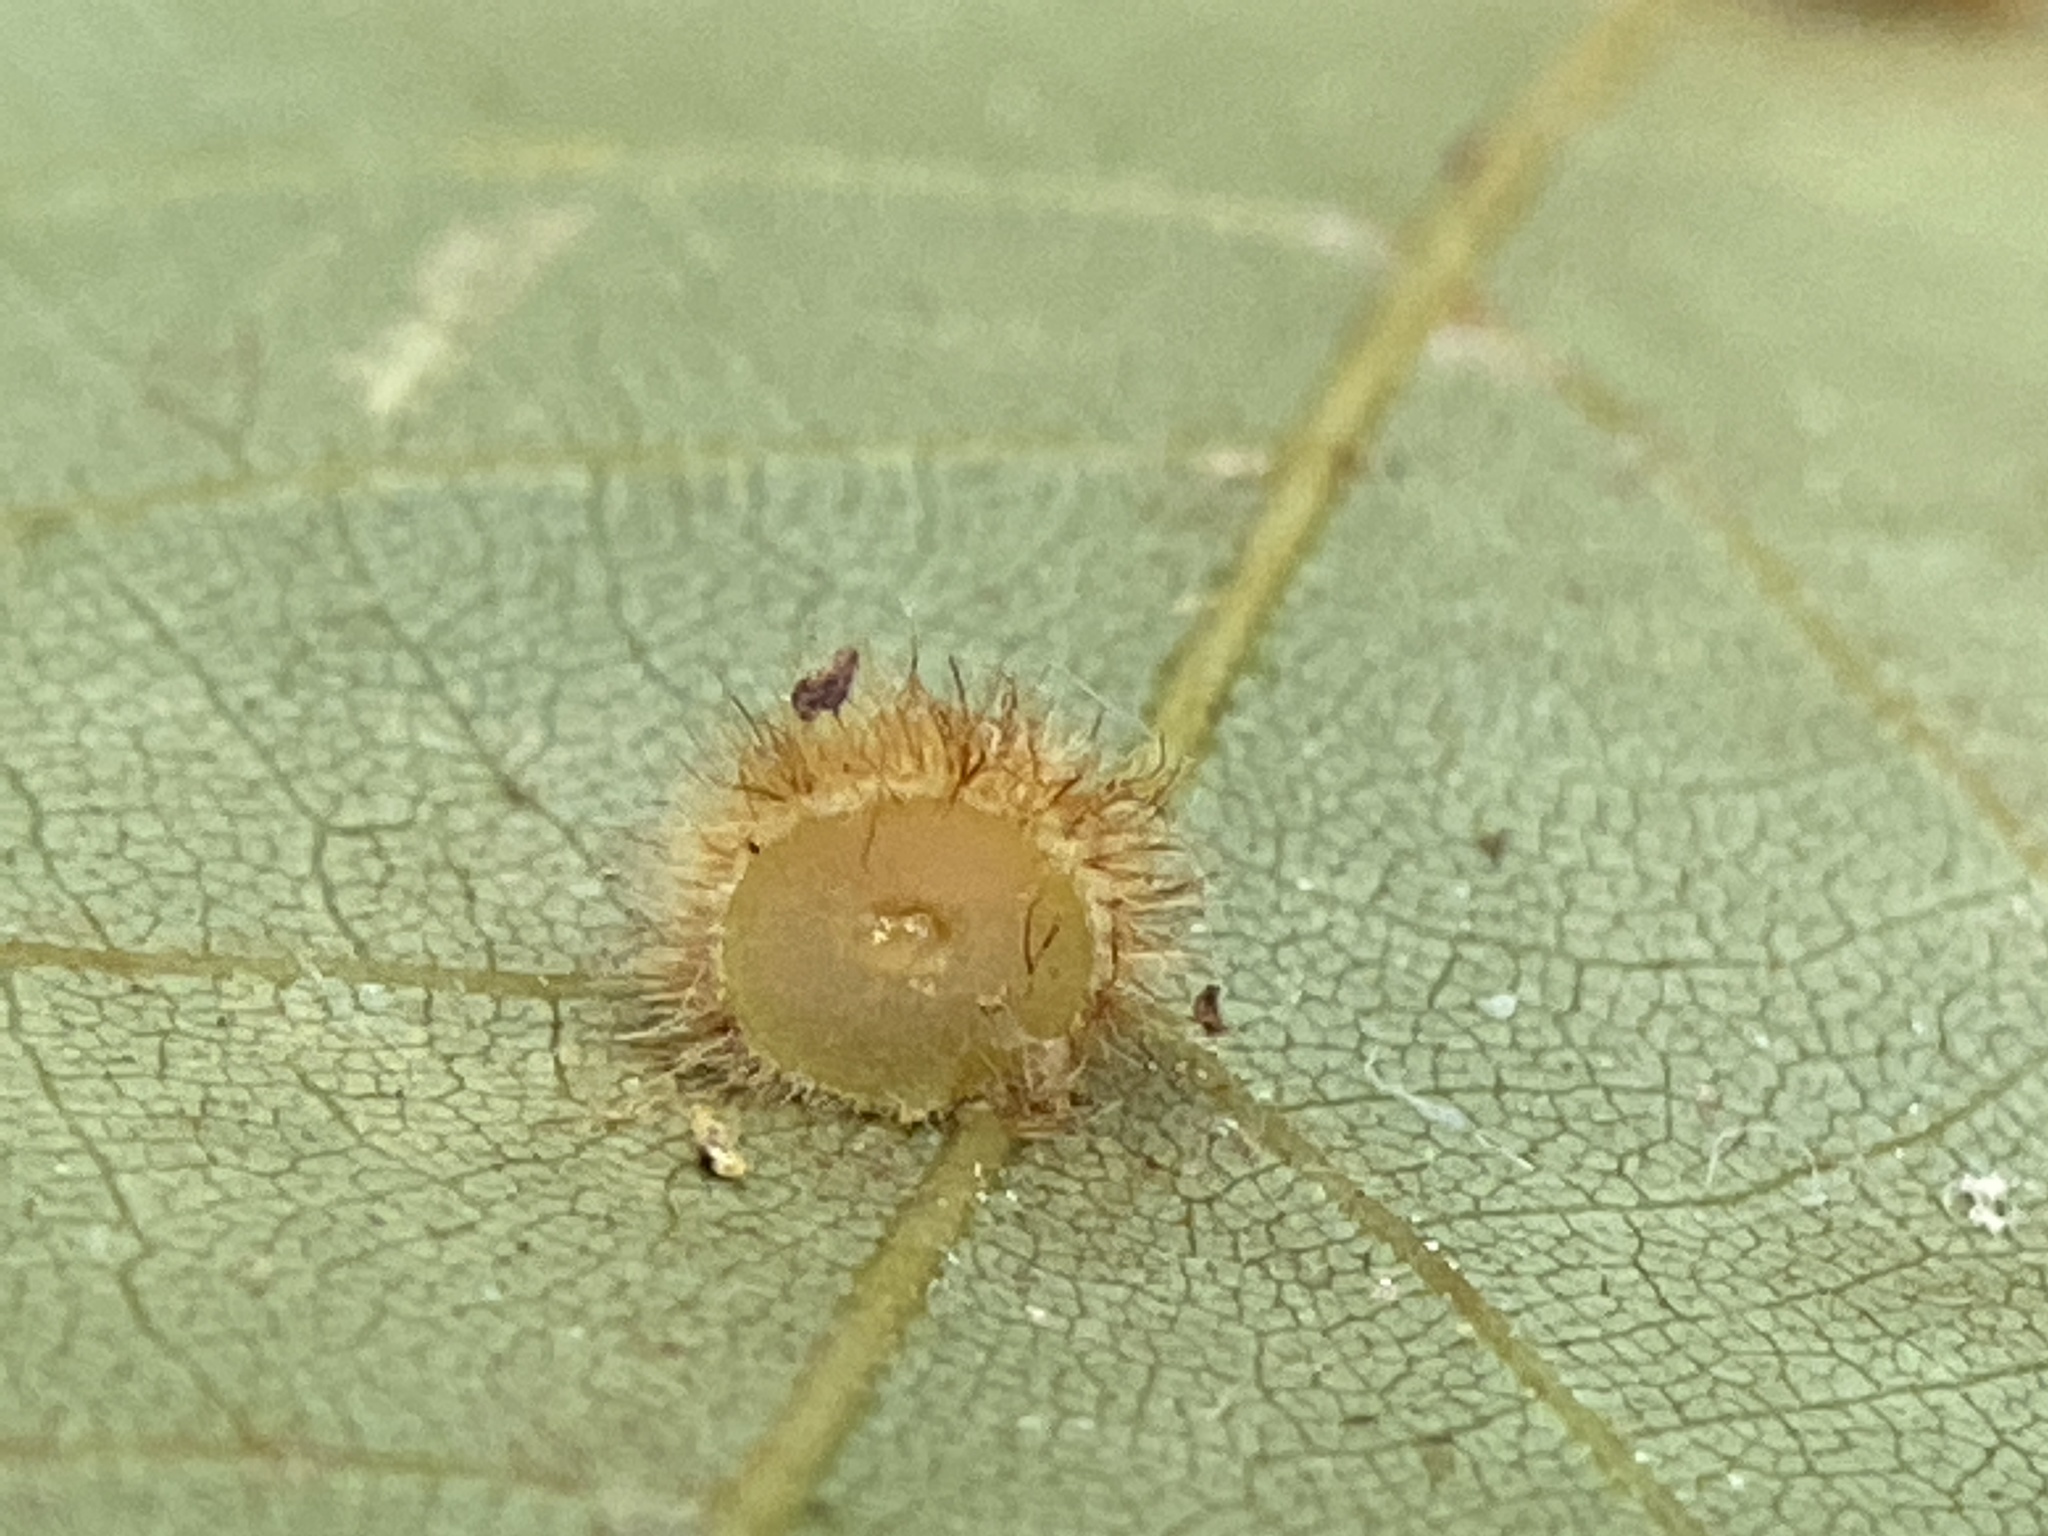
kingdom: Animalia
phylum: Arthropoda
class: Insecta
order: Diptera
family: Cecidomyiidae
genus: Caryomyia
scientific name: Caryomyia spherica
